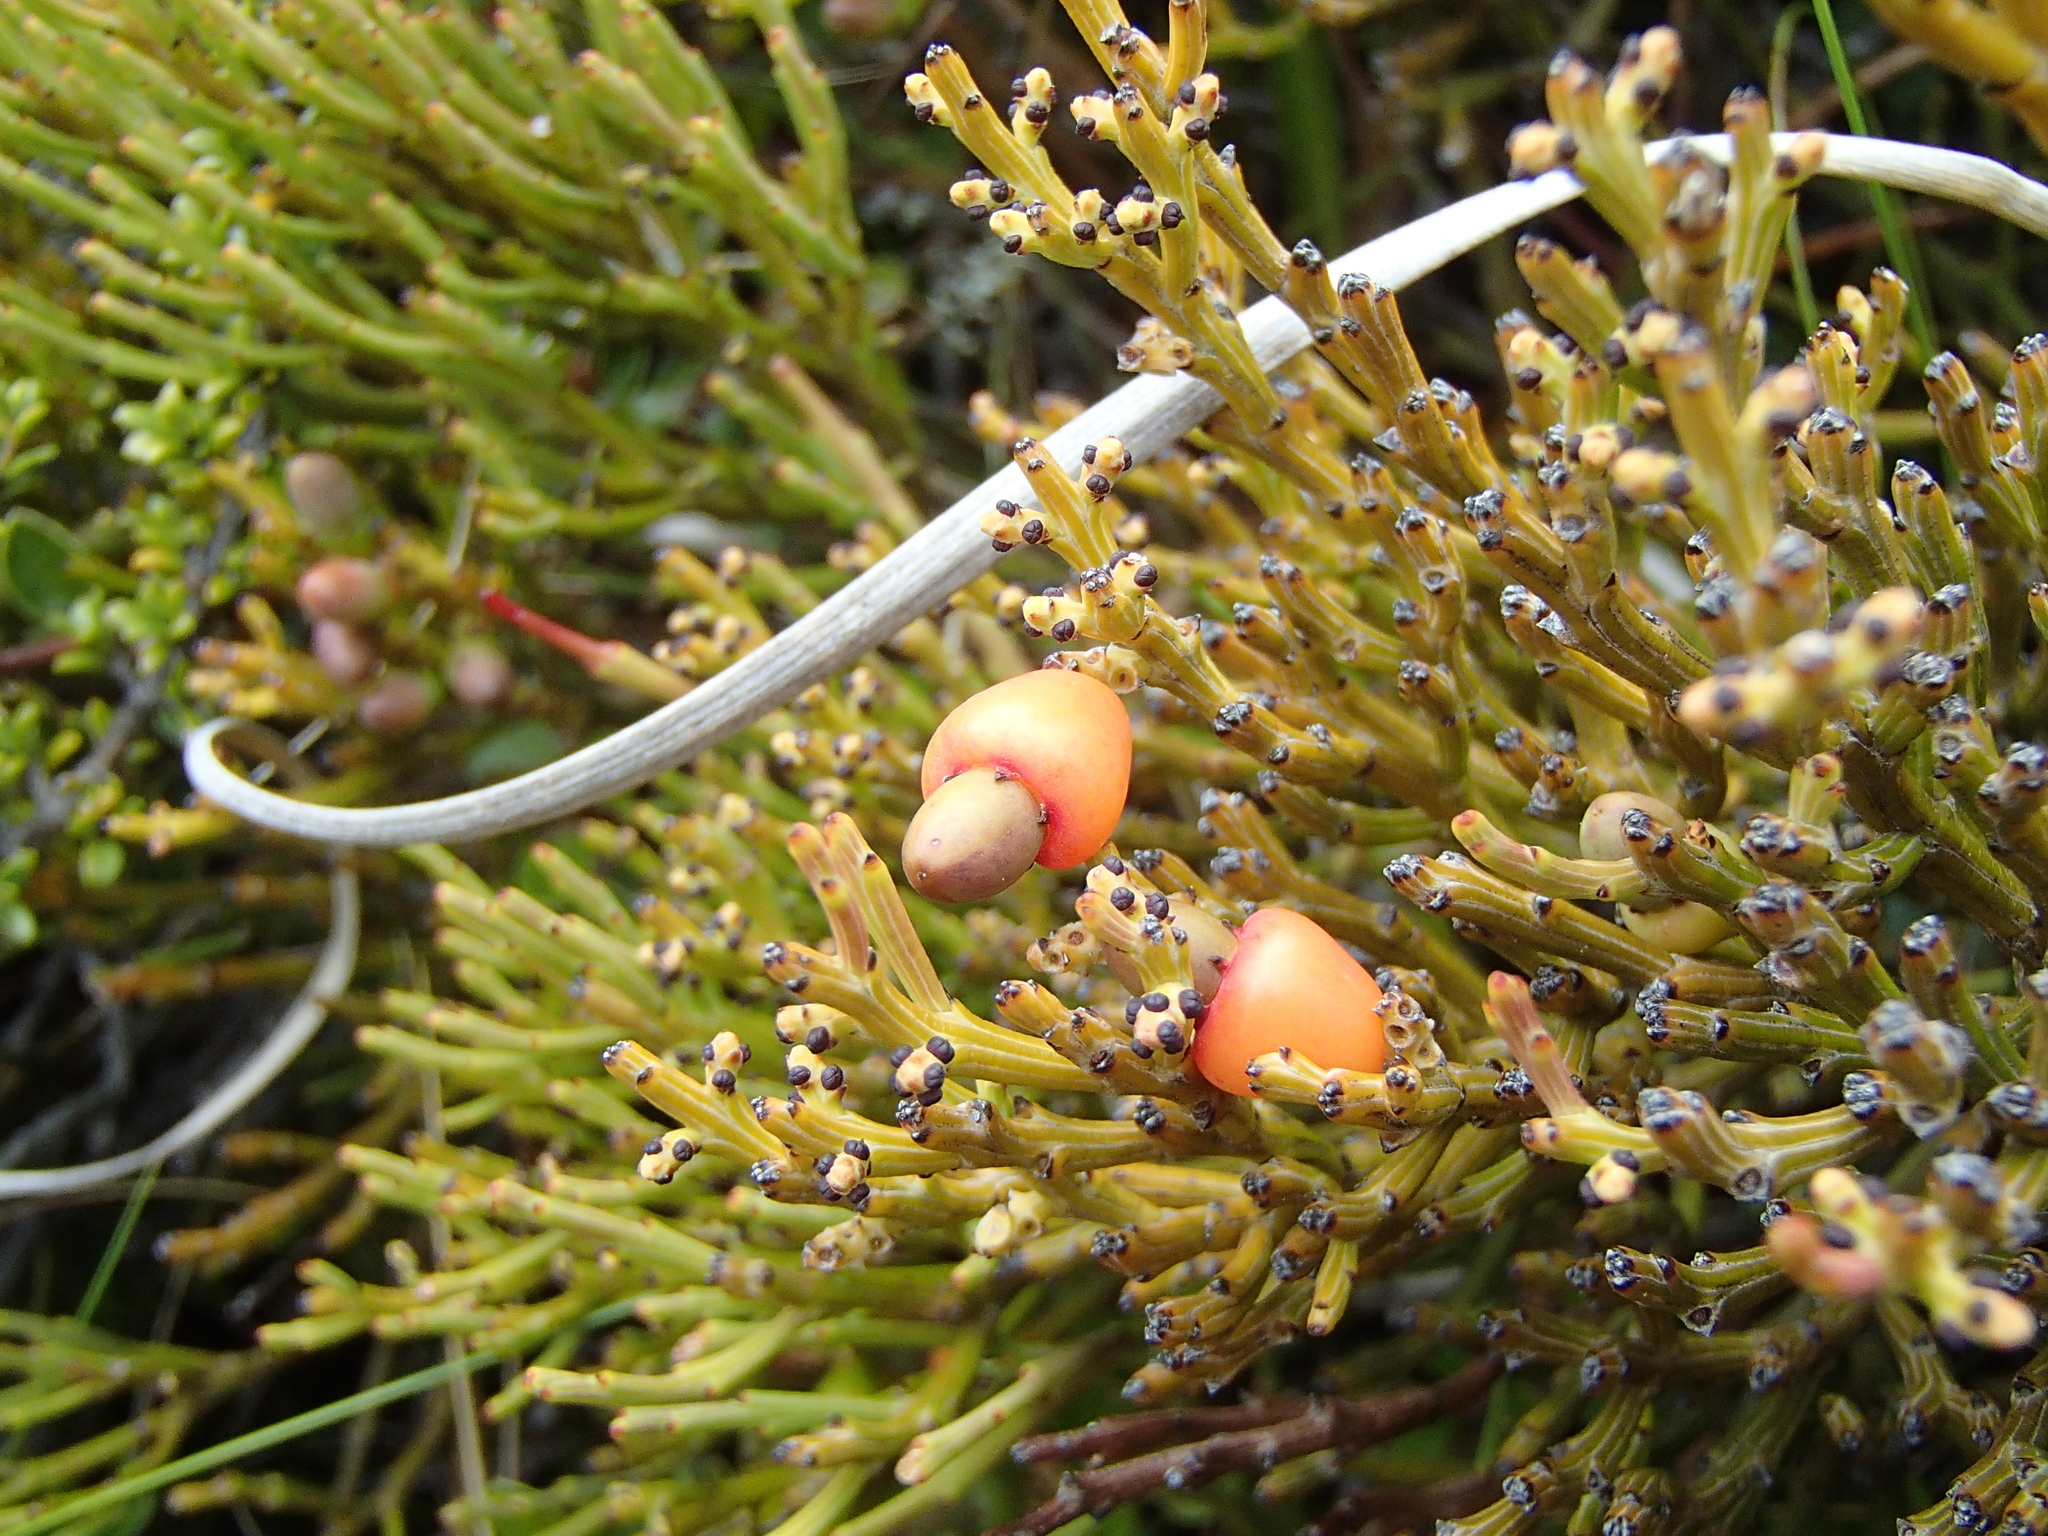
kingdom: Plantae
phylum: Tracheophyta
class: Magnoliopsida
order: Santalales
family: Santalaceae
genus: Exocarpos
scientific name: Exocarpos bidwillii
